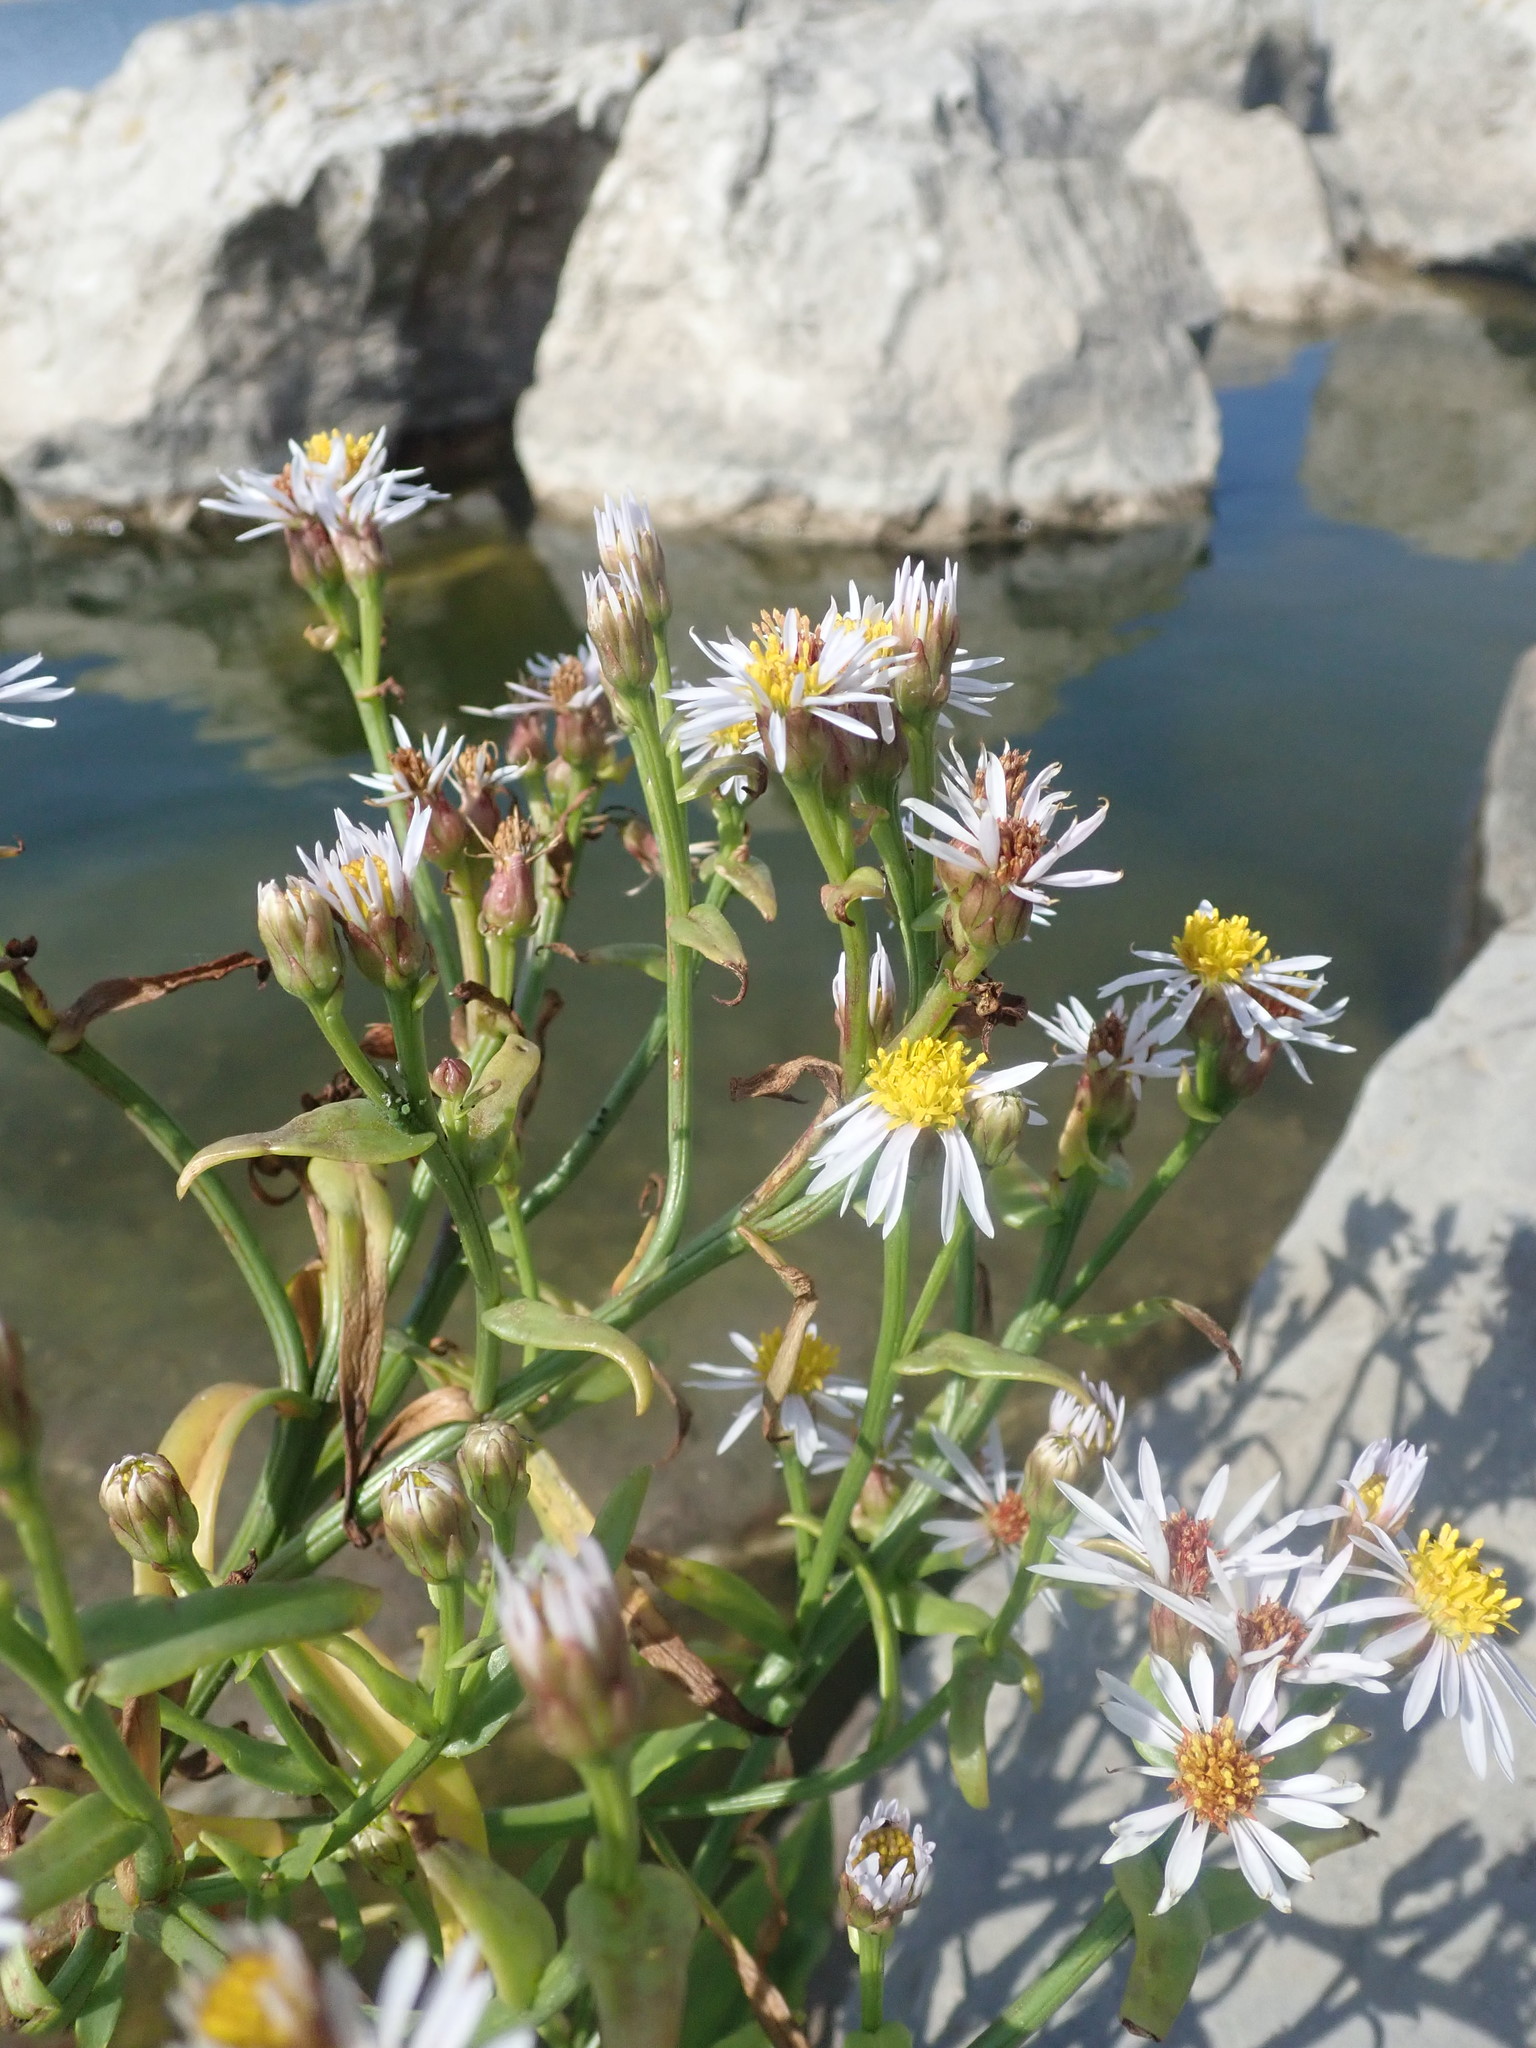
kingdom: Plantae
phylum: Tracheophyta
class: Magnoliopsida
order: Asterales
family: Asteraceae
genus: Tripolium
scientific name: Tripolium pannonicum
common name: Sea aster
